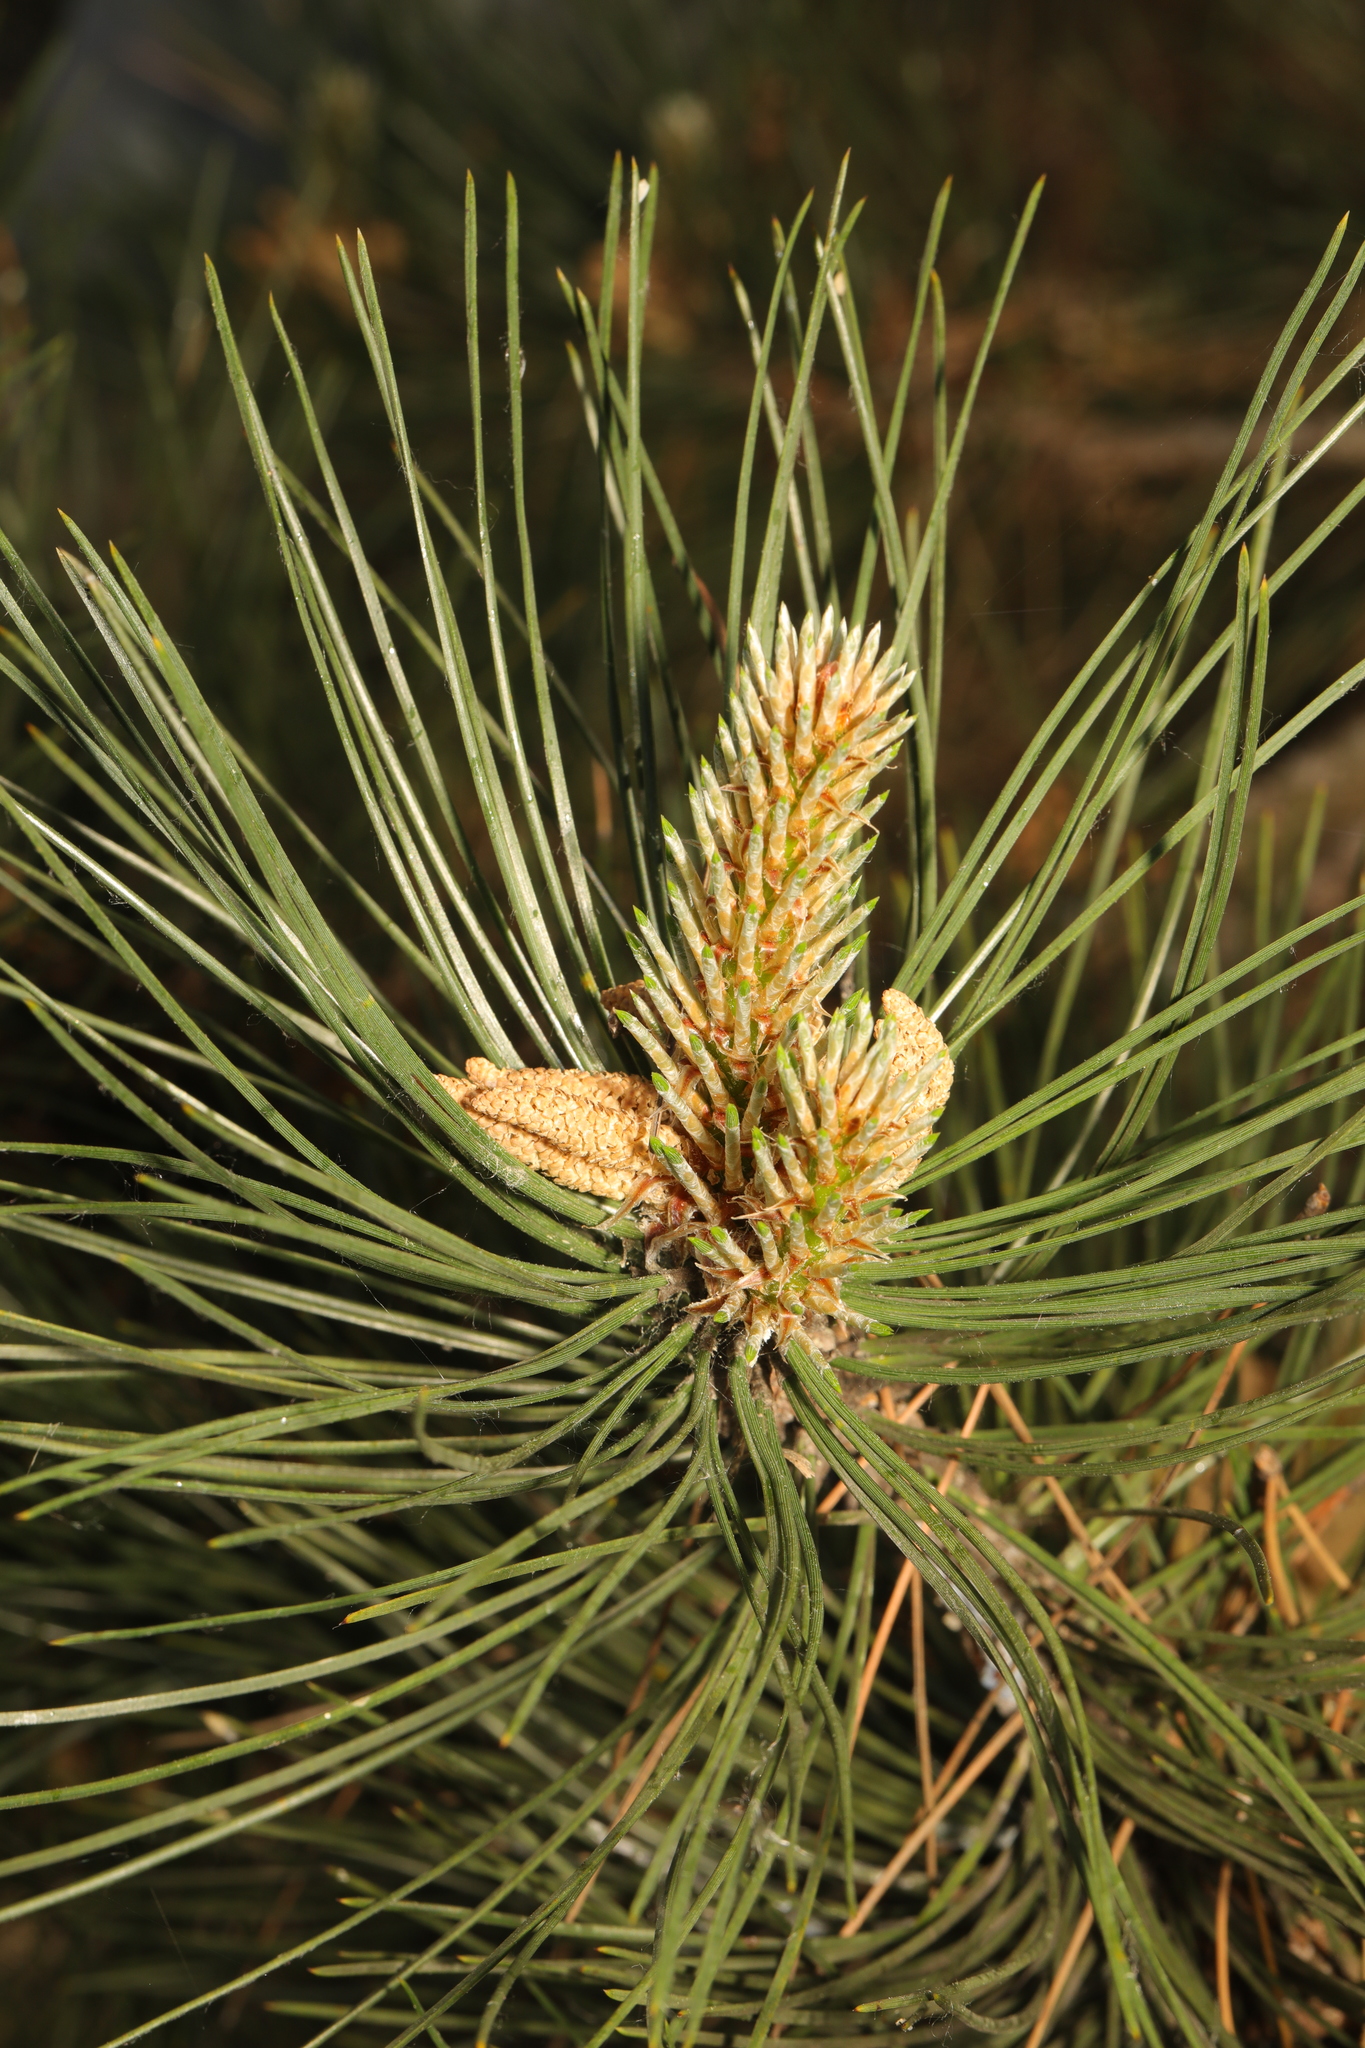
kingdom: Plantae
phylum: Tracheophyta
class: Pinopsida
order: Pinales
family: Pinaceae
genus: Pinus
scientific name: Pinus nigra
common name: Austrian pine
